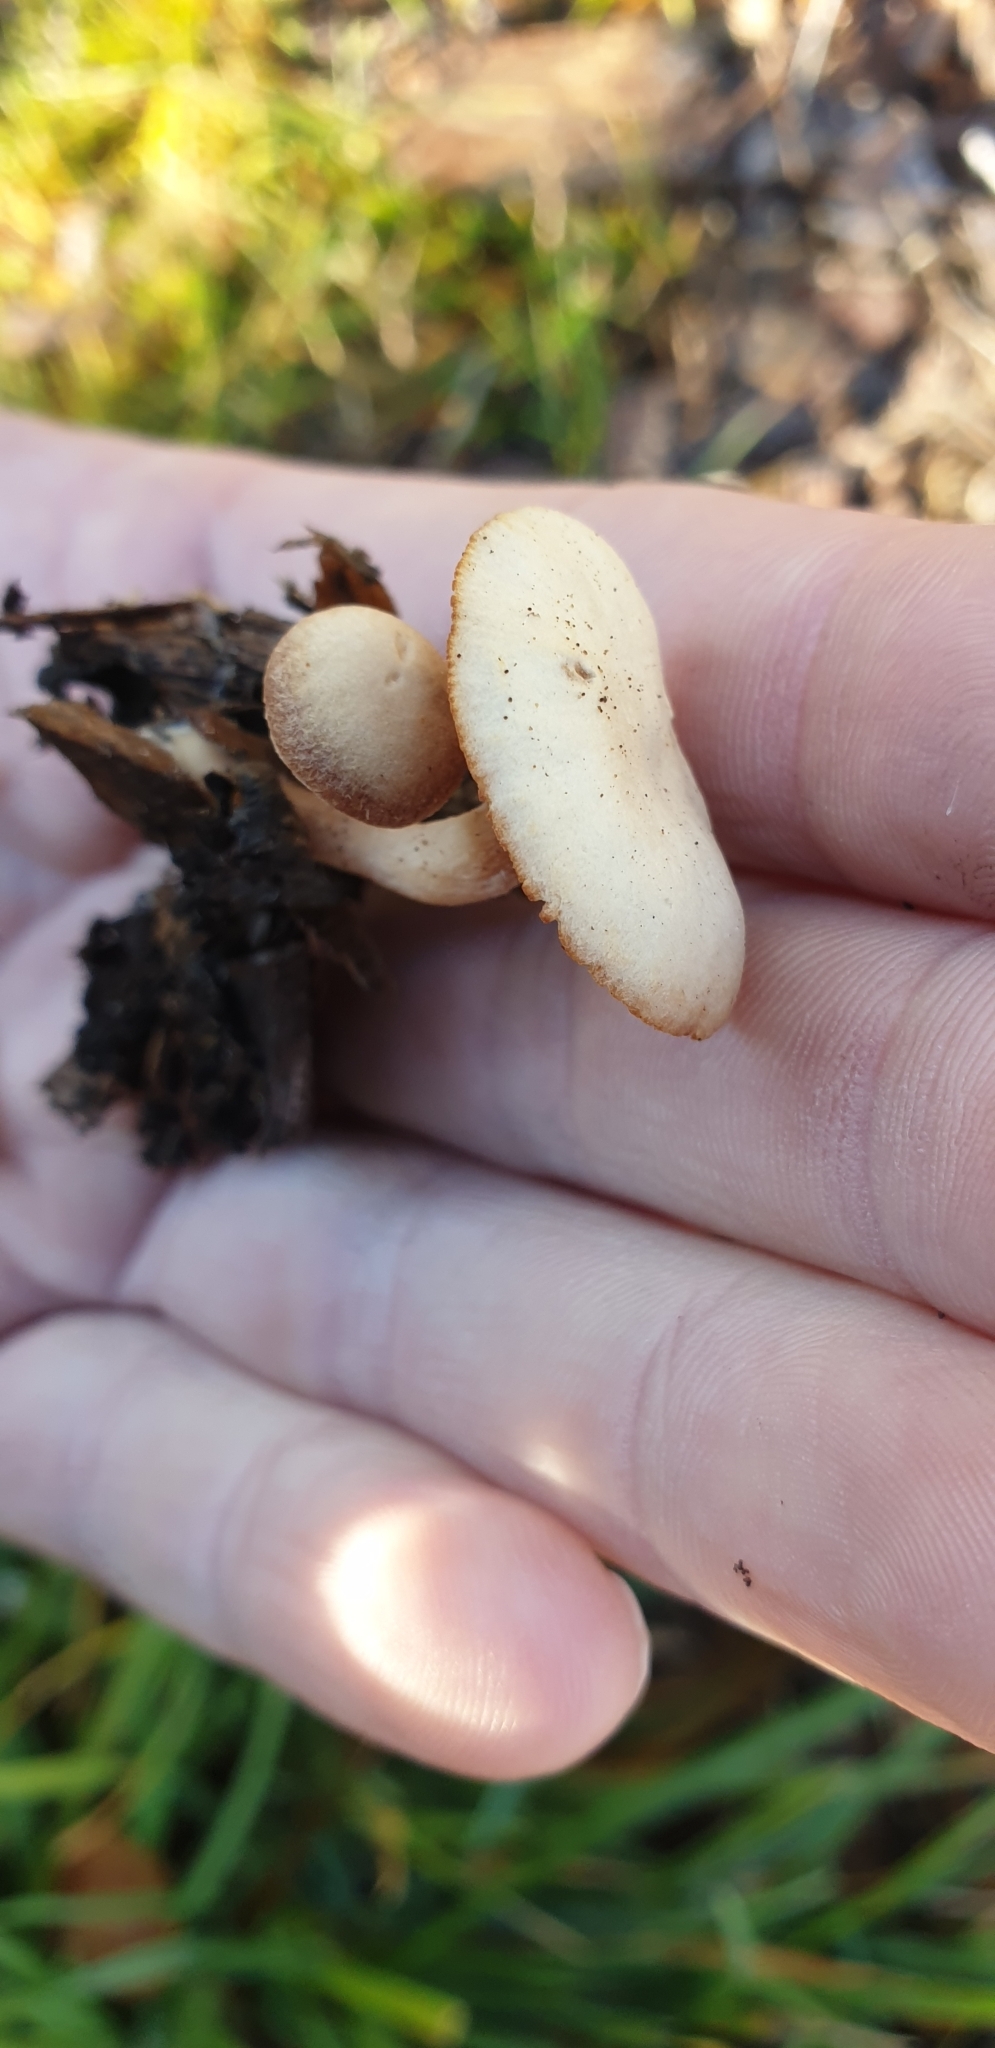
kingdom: Fungi
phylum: Basidiomycota
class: Agaricomycetes
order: Agaricales
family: Tubariaceae
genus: Tubaria
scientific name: Tubaria furfuracea
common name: Scurfy twiglet
